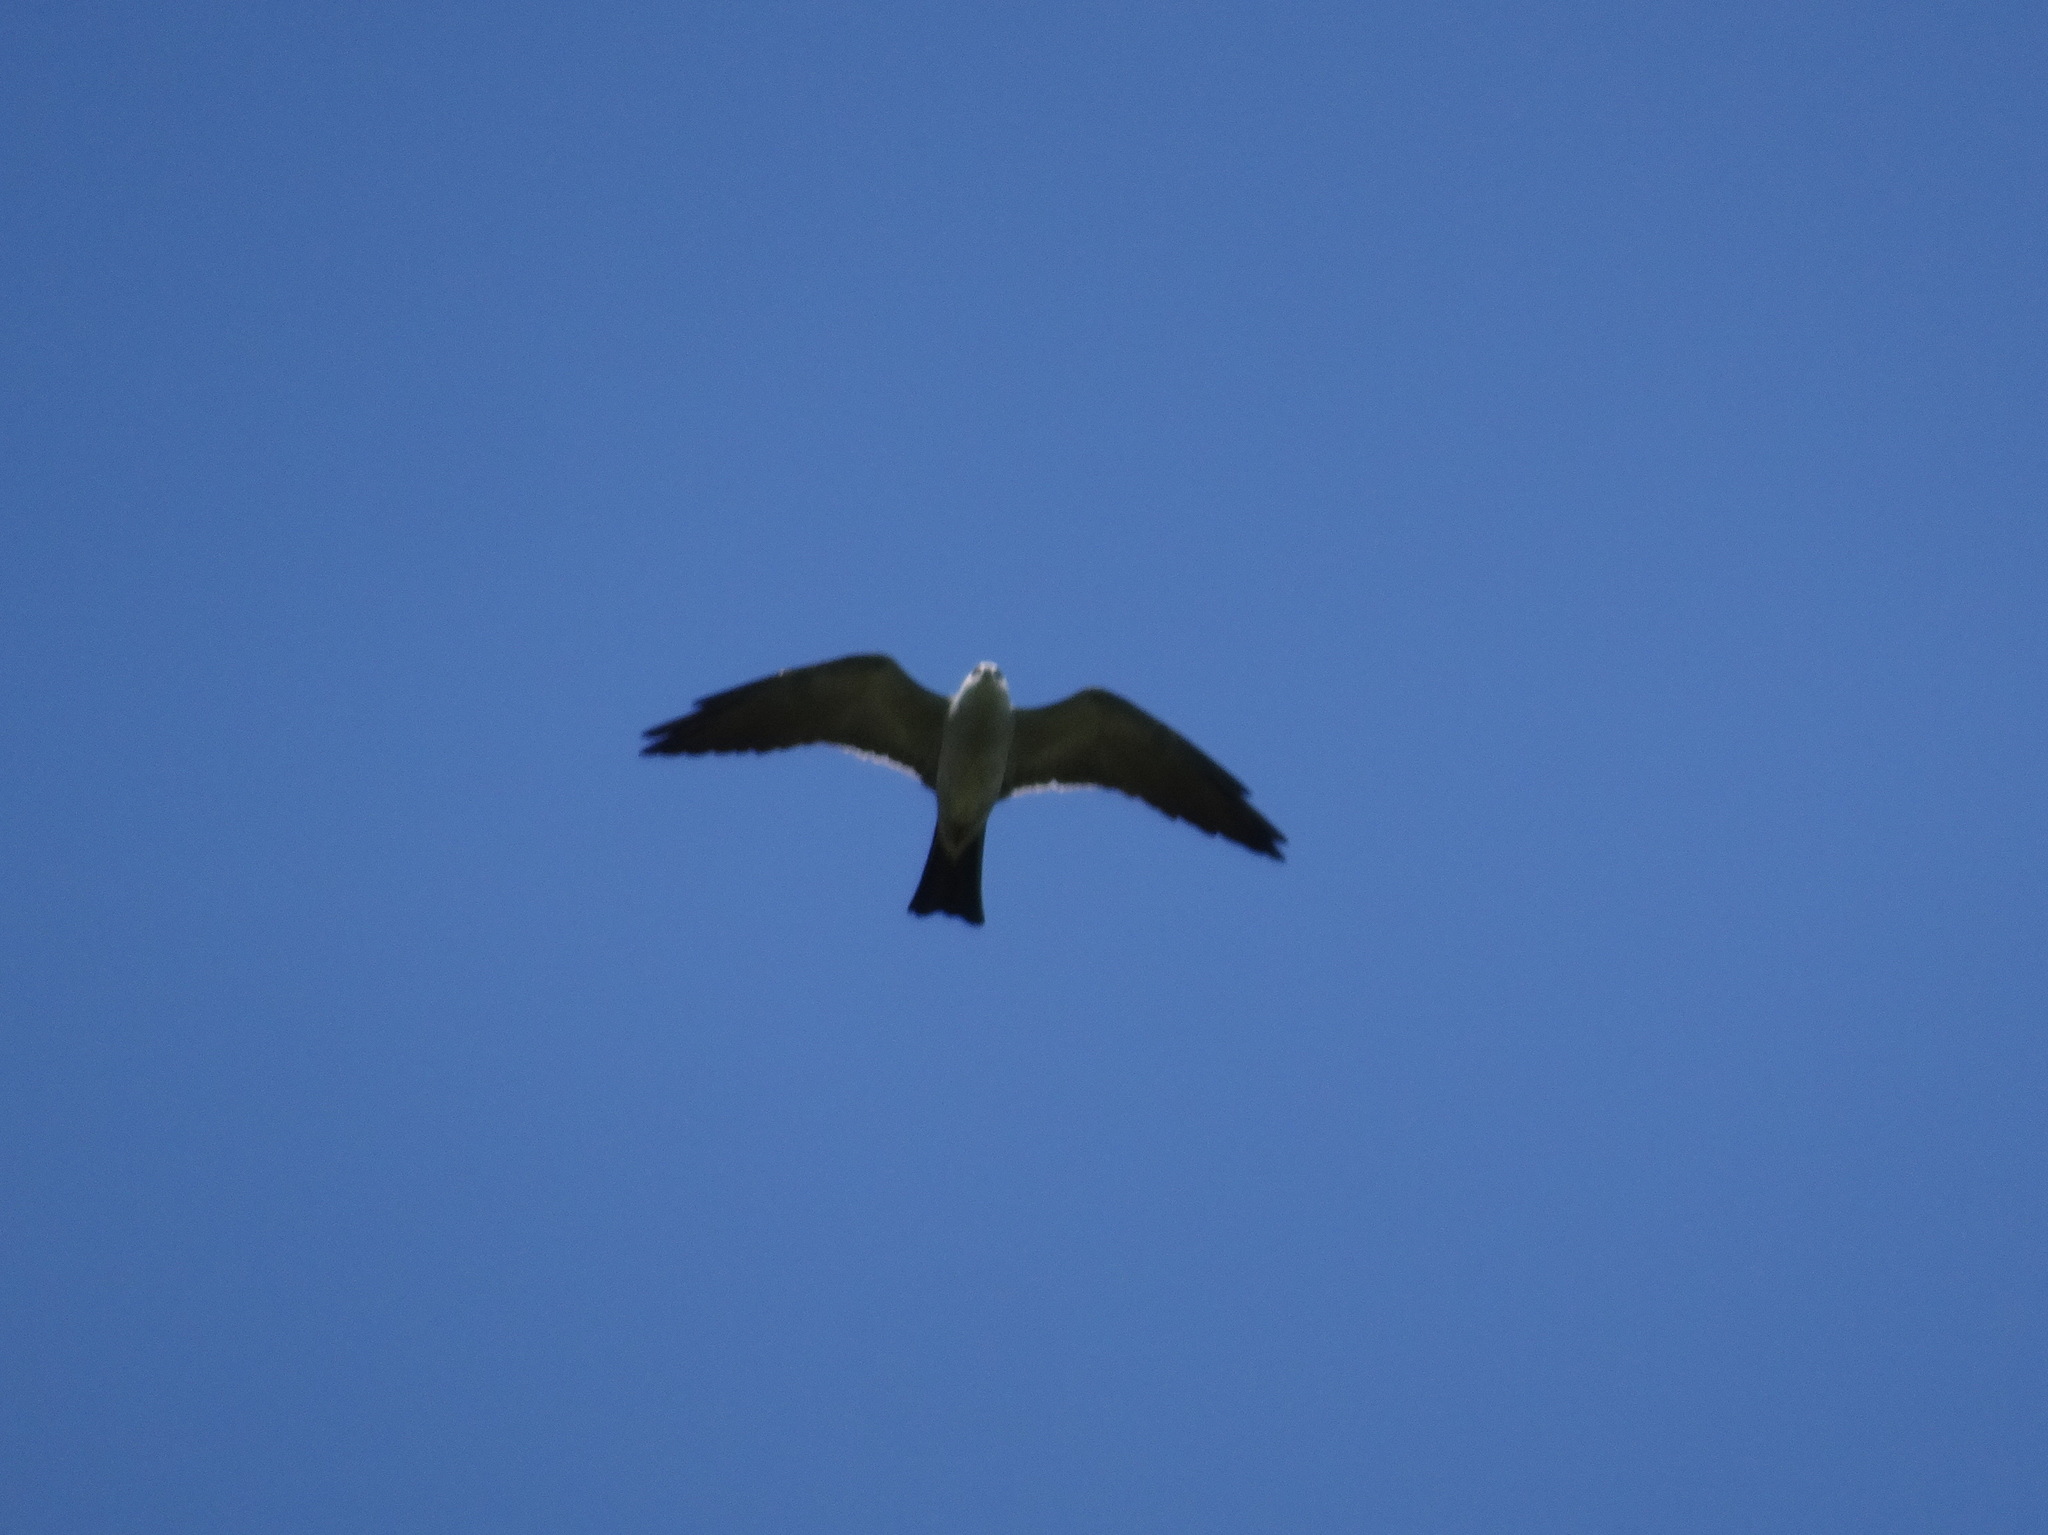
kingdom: Animalia
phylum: Chordata
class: Aves
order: Accipitriformes
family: Accipitridae
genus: Ictinia
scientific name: Ictinia mississippiensis
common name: Mississippi kite
